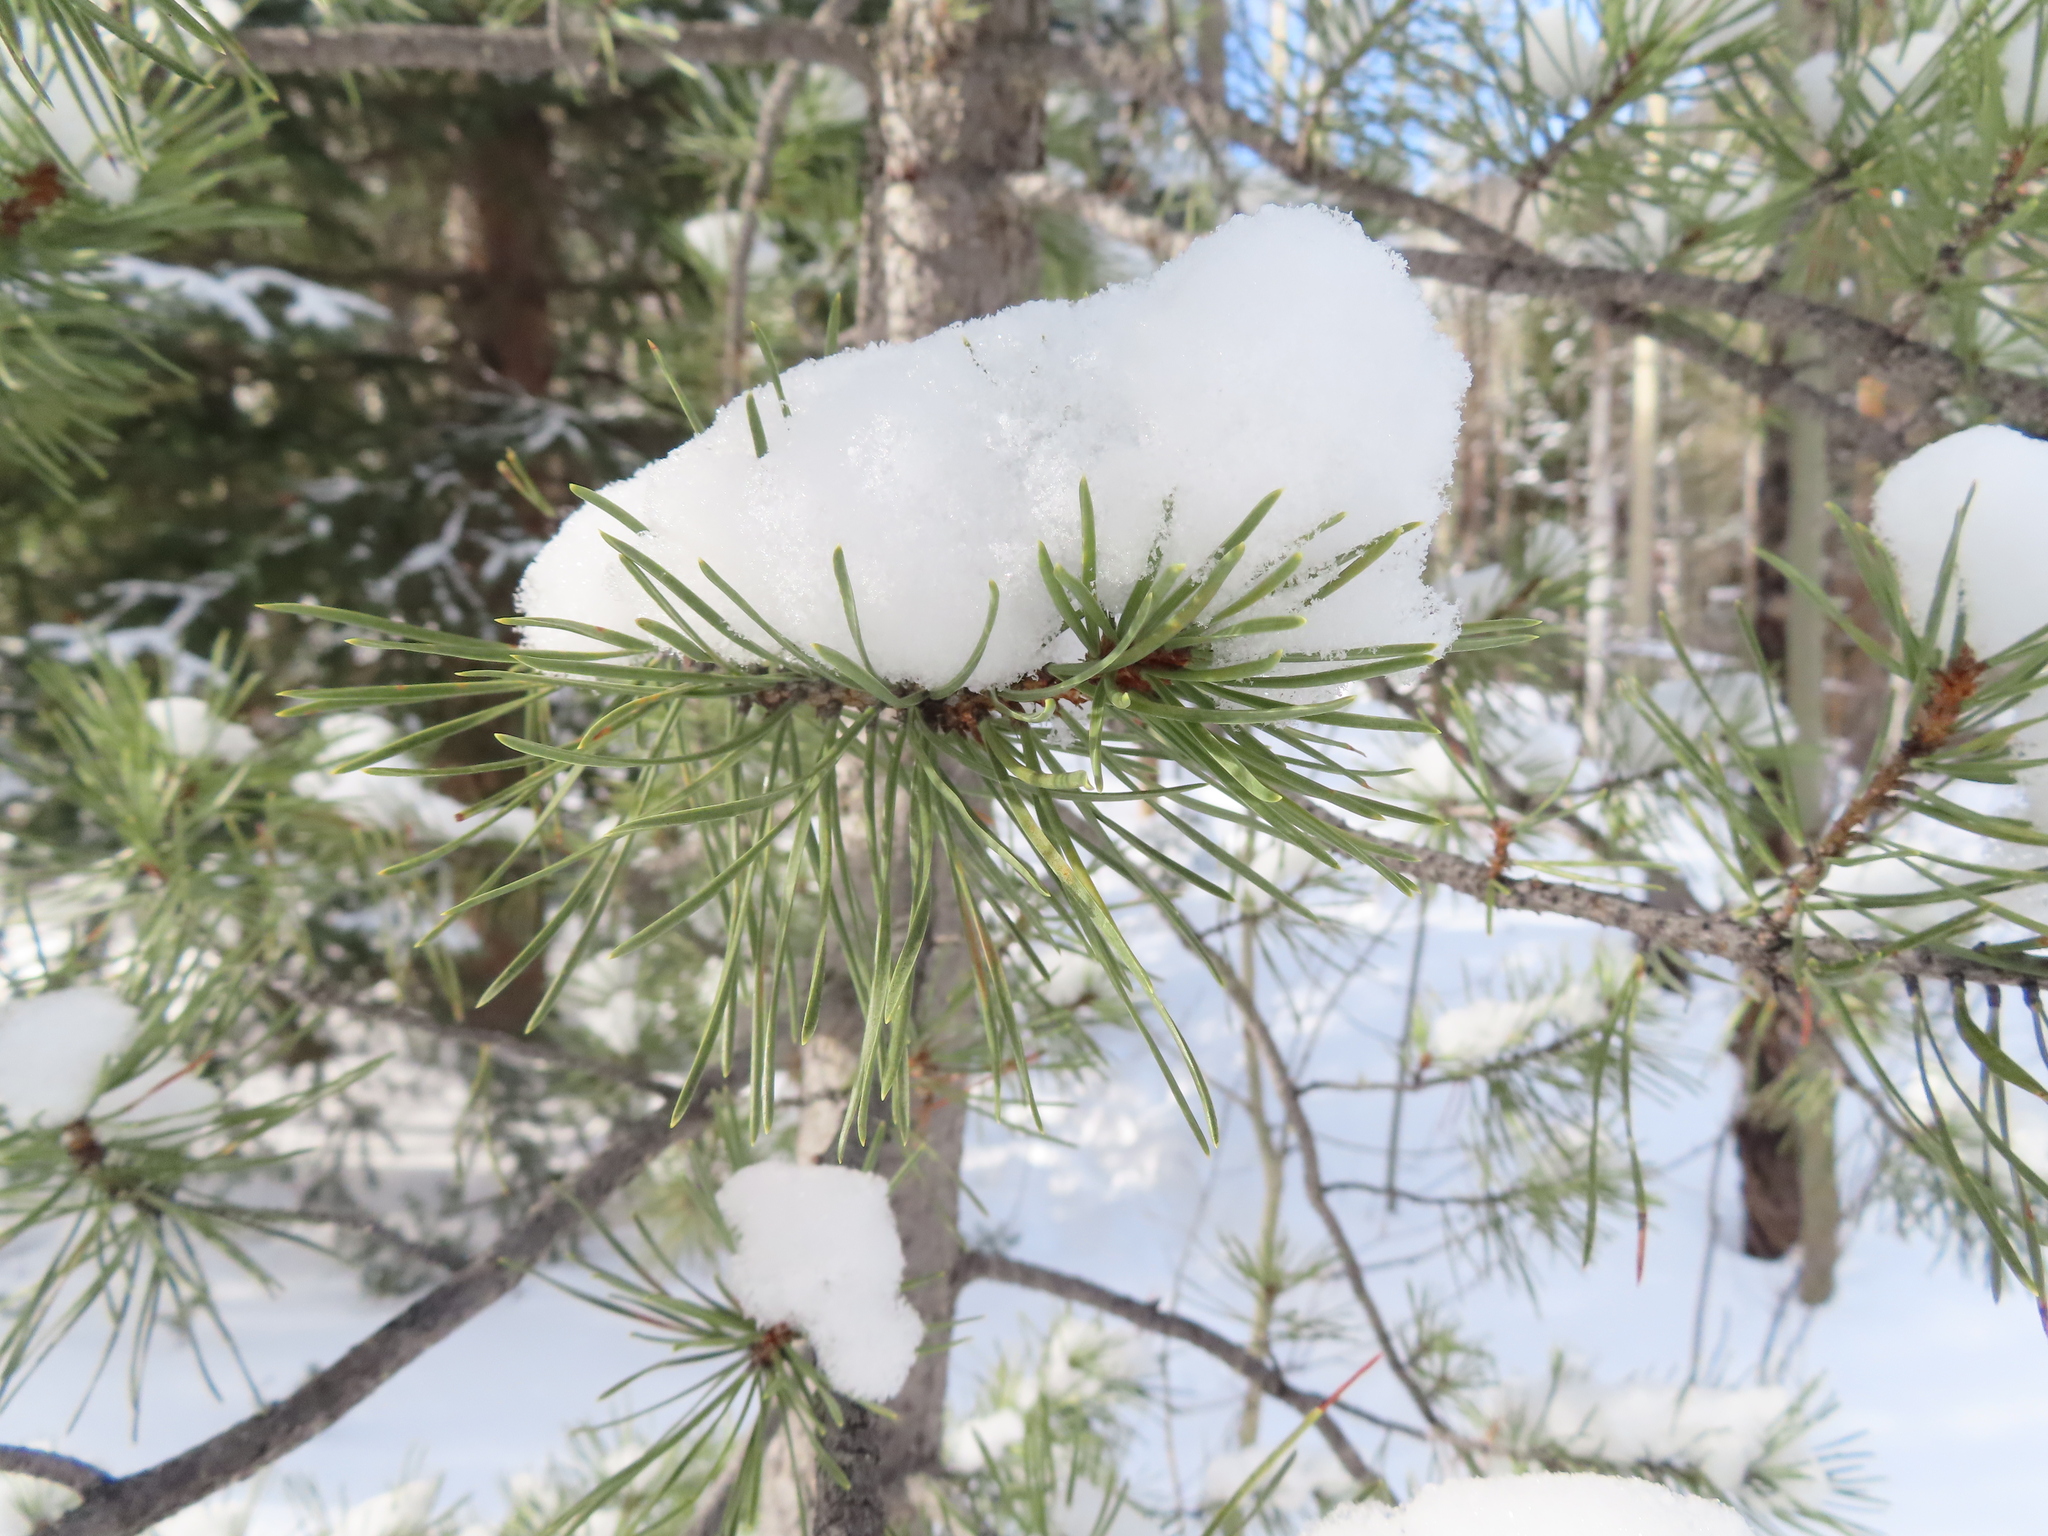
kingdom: Plantae
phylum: Tracheophyta
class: Pinopsida
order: Pinales
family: Pinaceae
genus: Pinus
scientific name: Pinus contorta
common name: Lodgepole pine
